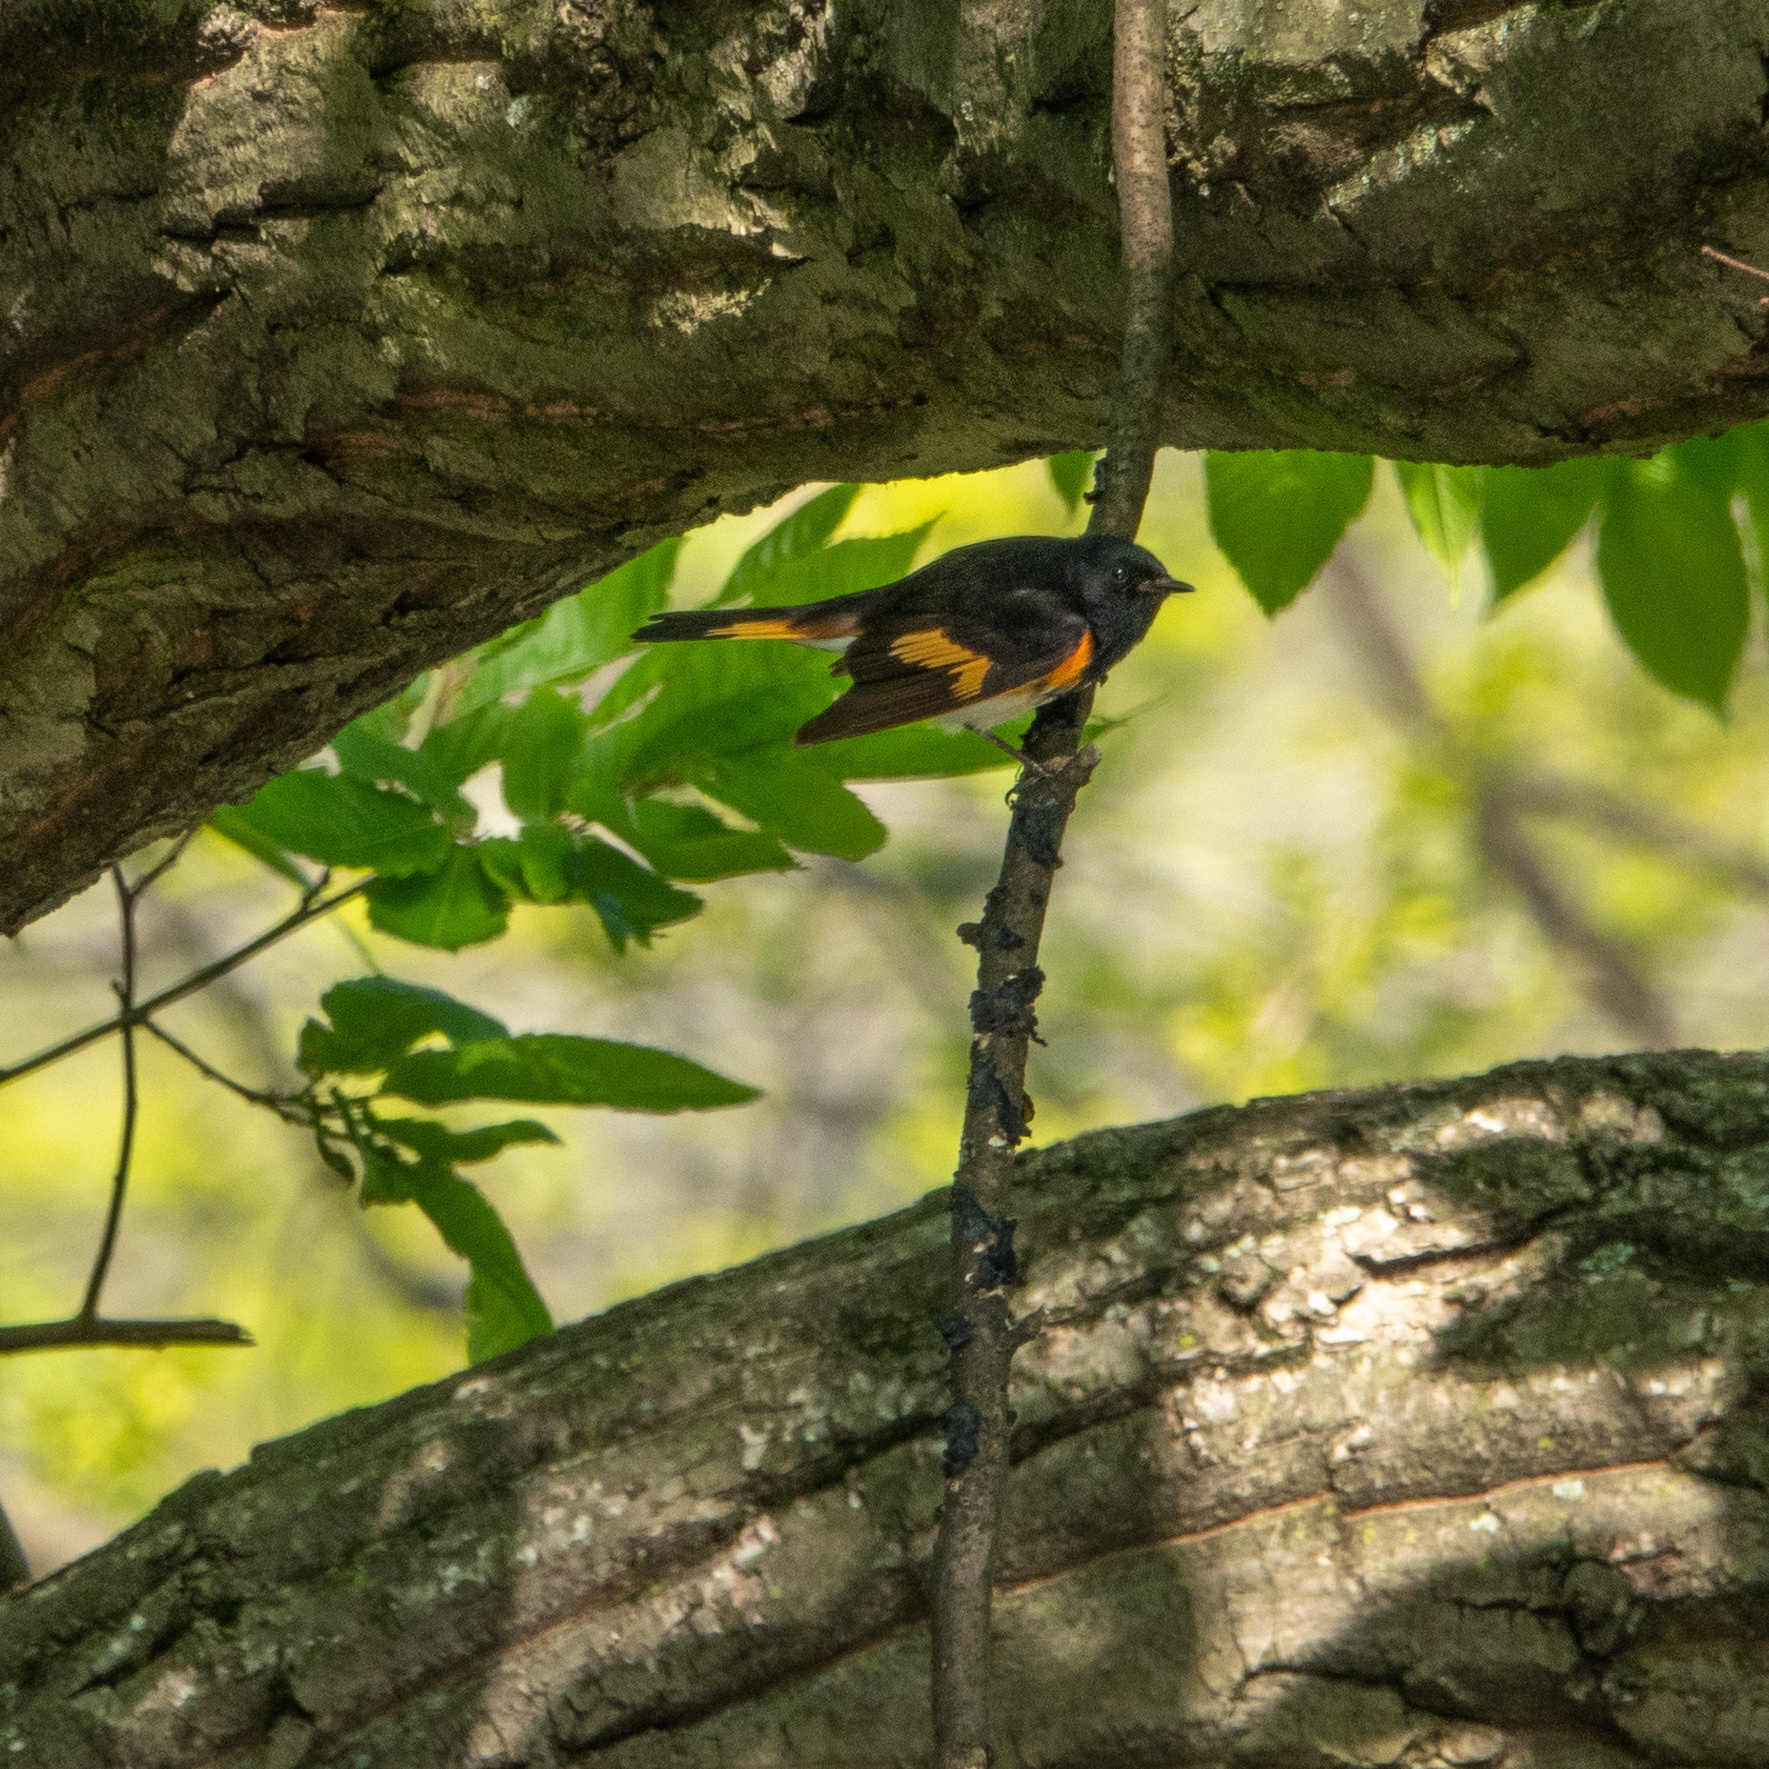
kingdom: Animalia
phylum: Chordata
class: Aves
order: Passeriformes
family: Parulidae
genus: Setophaga
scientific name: Setophaga ruticilla
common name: American redstart
